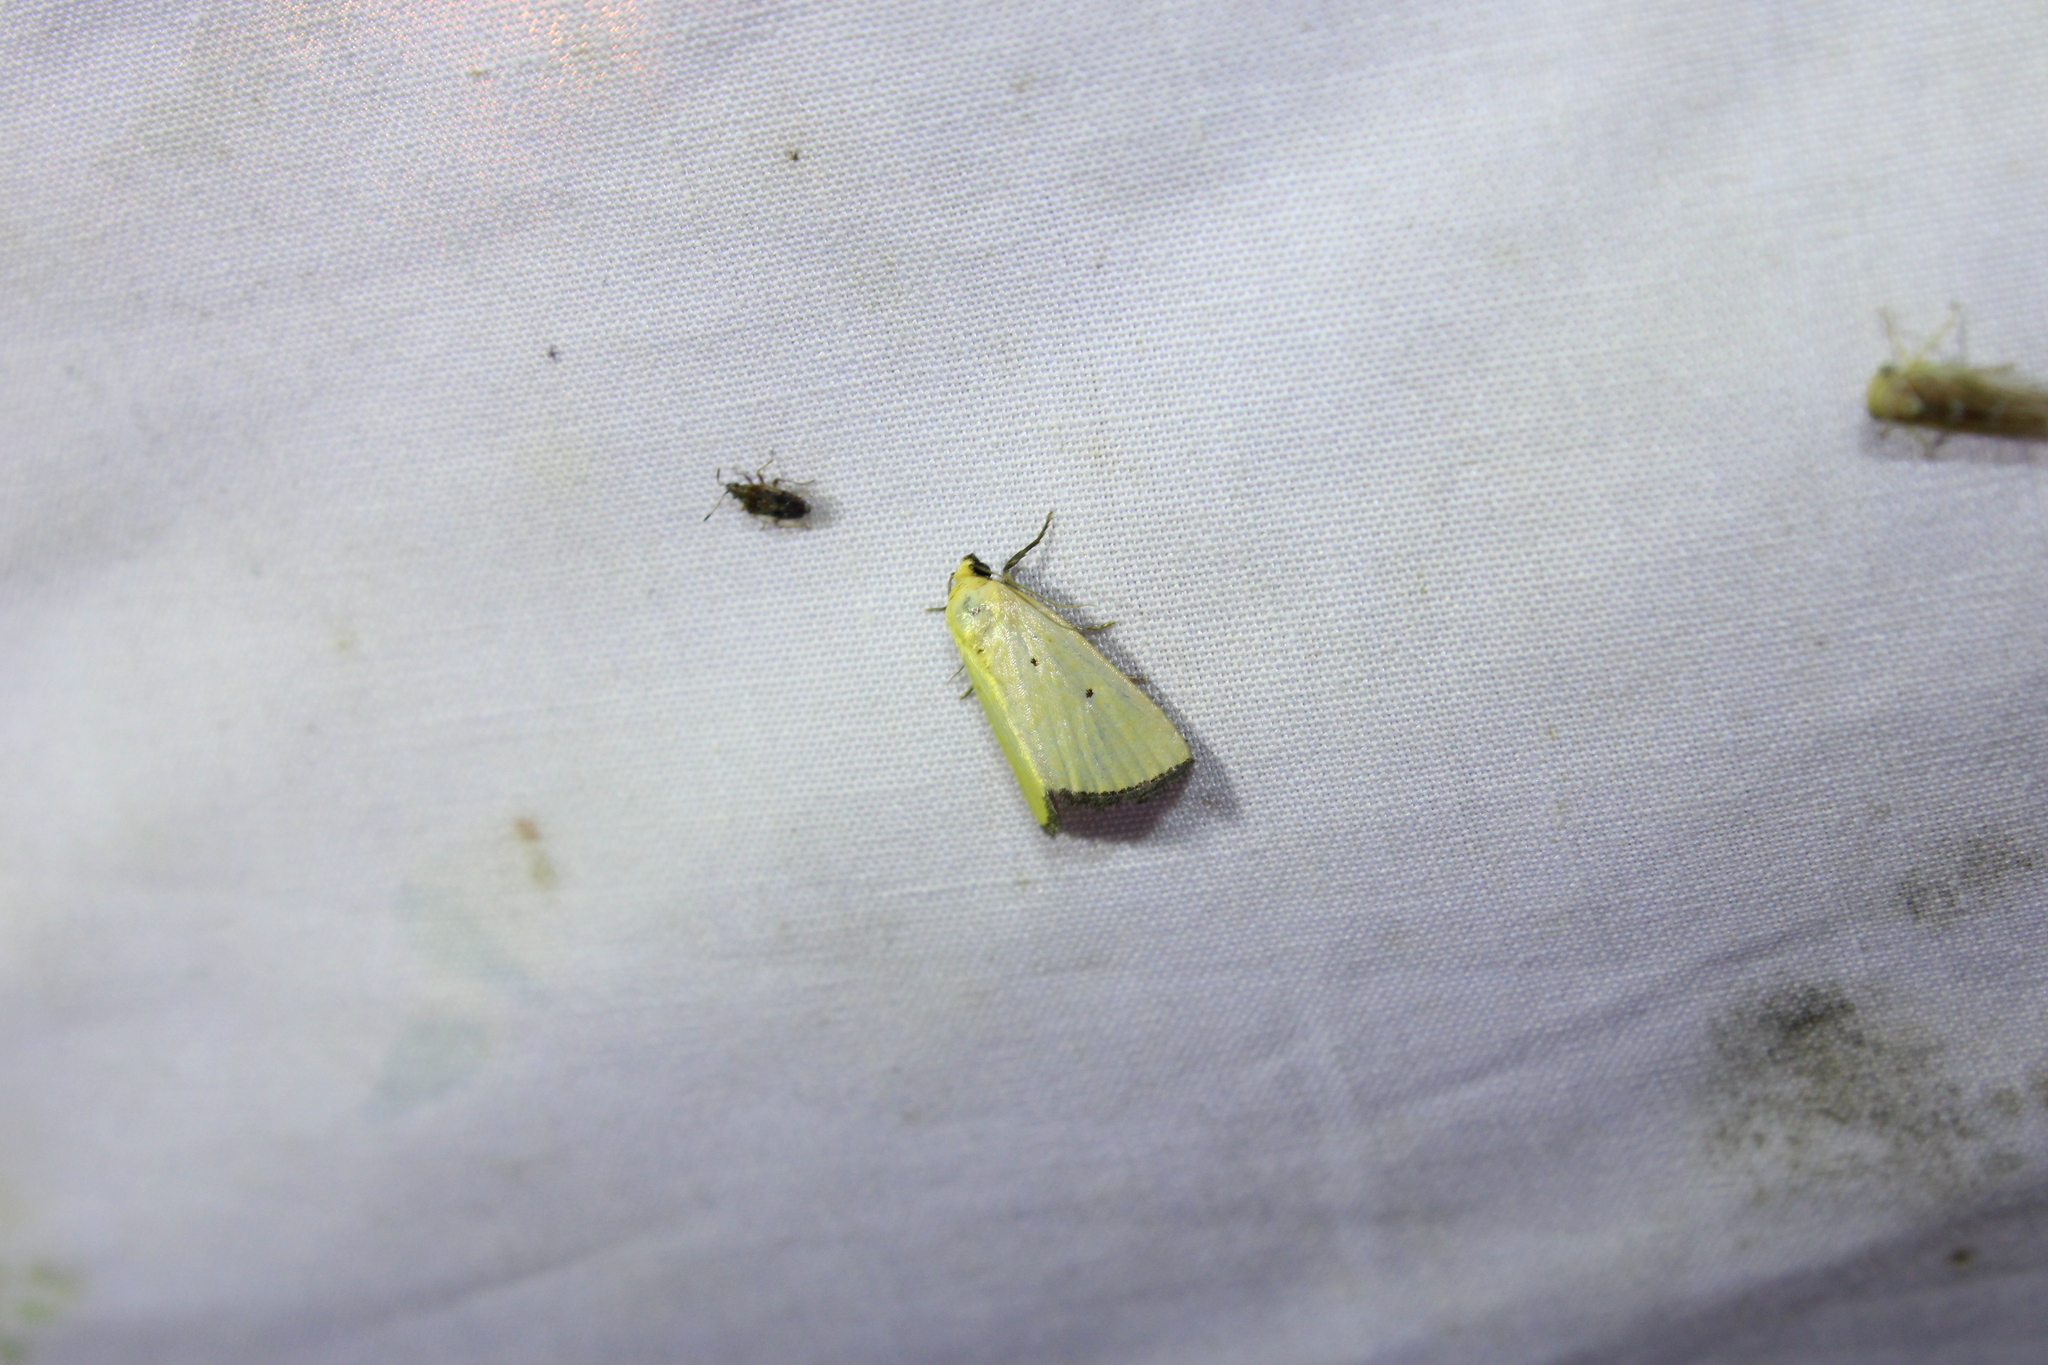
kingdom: Animalia
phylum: Arthropoda
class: Insecta
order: Lepidoptera
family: Noctuidae
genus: Marimatha
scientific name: Marimatha nigrofimbria
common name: Black-bordered lemon moth
